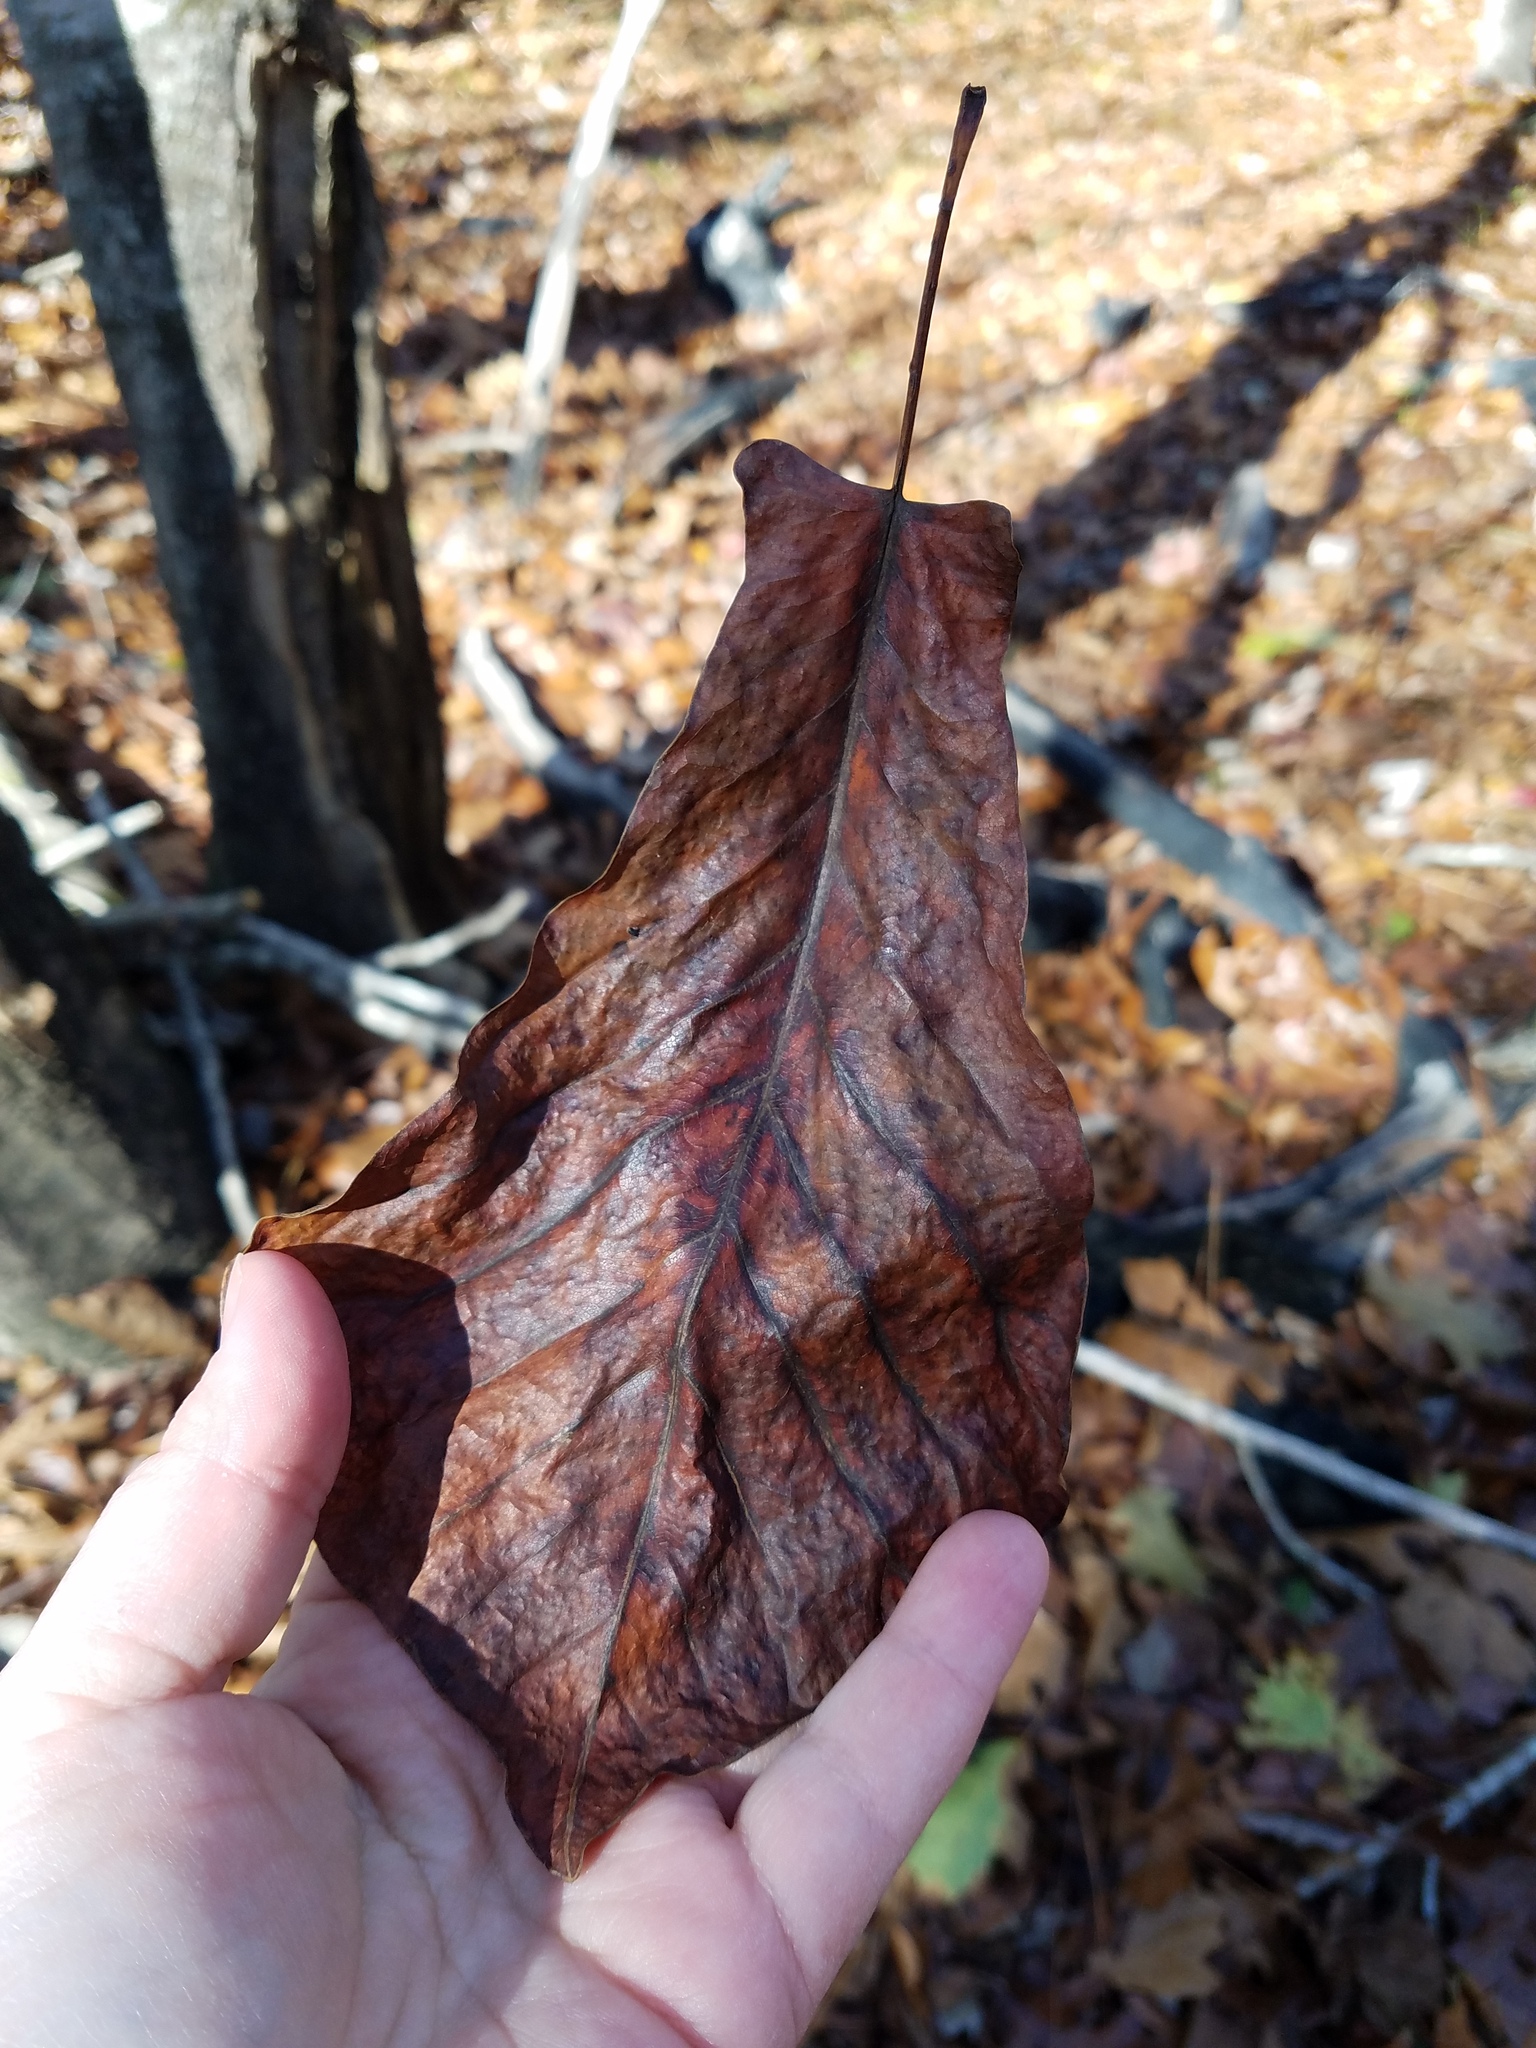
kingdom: Plantae
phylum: Tracheophyta
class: Magnoliopsida
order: Magnoliales
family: Magnoliaceae
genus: Magnolia
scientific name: Magnolia fraseri
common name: Fraser's magnolia
